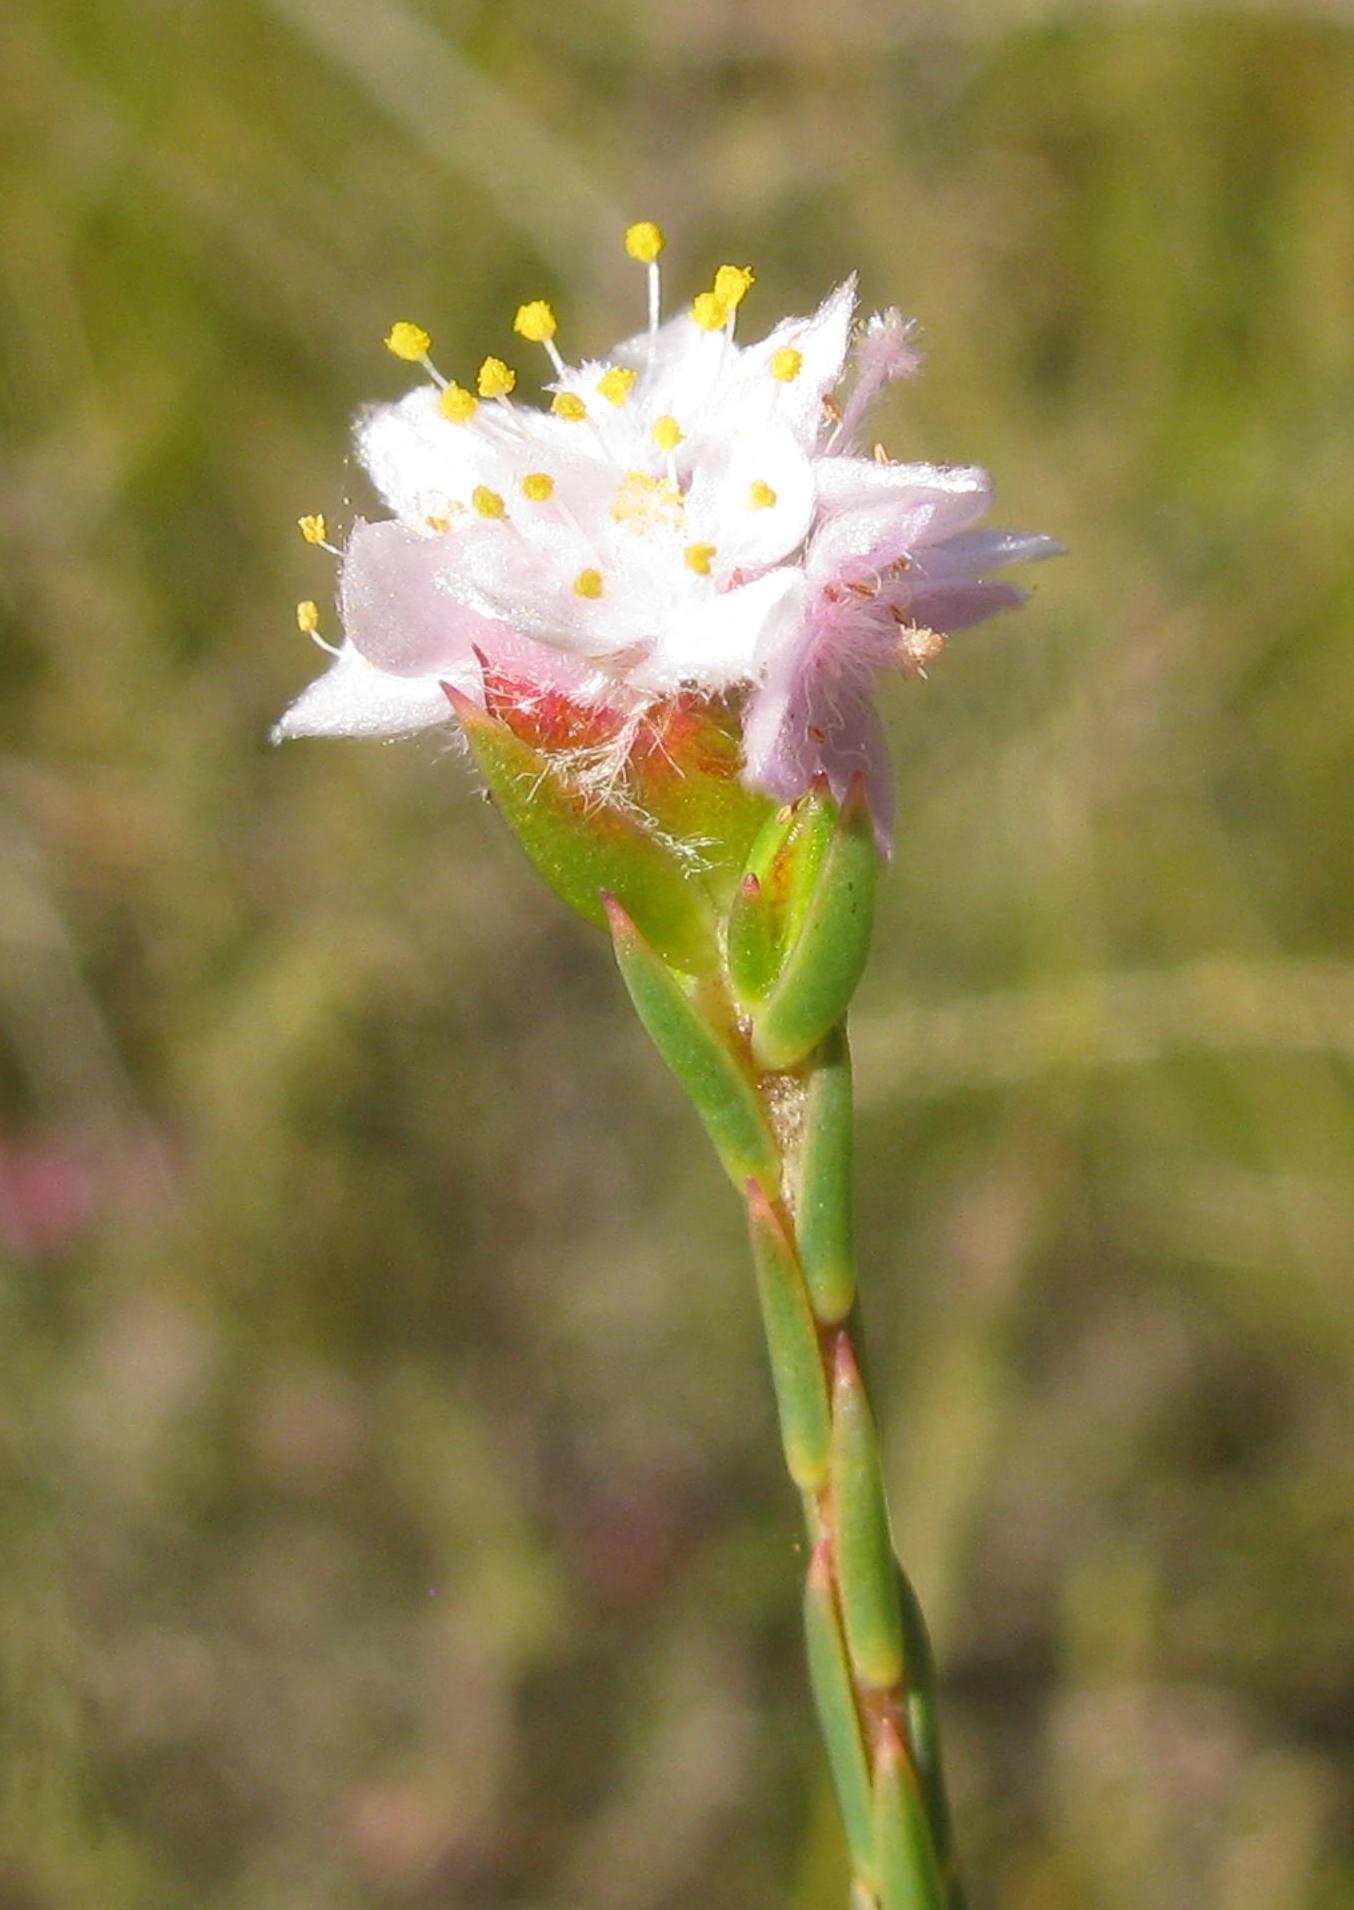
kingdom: Plantae
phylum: Tracheophyta
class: Magnoliopsida
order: Malvales
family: Thymelaeaceae
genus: Lachnaea
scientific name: Lachnaea globulifera
